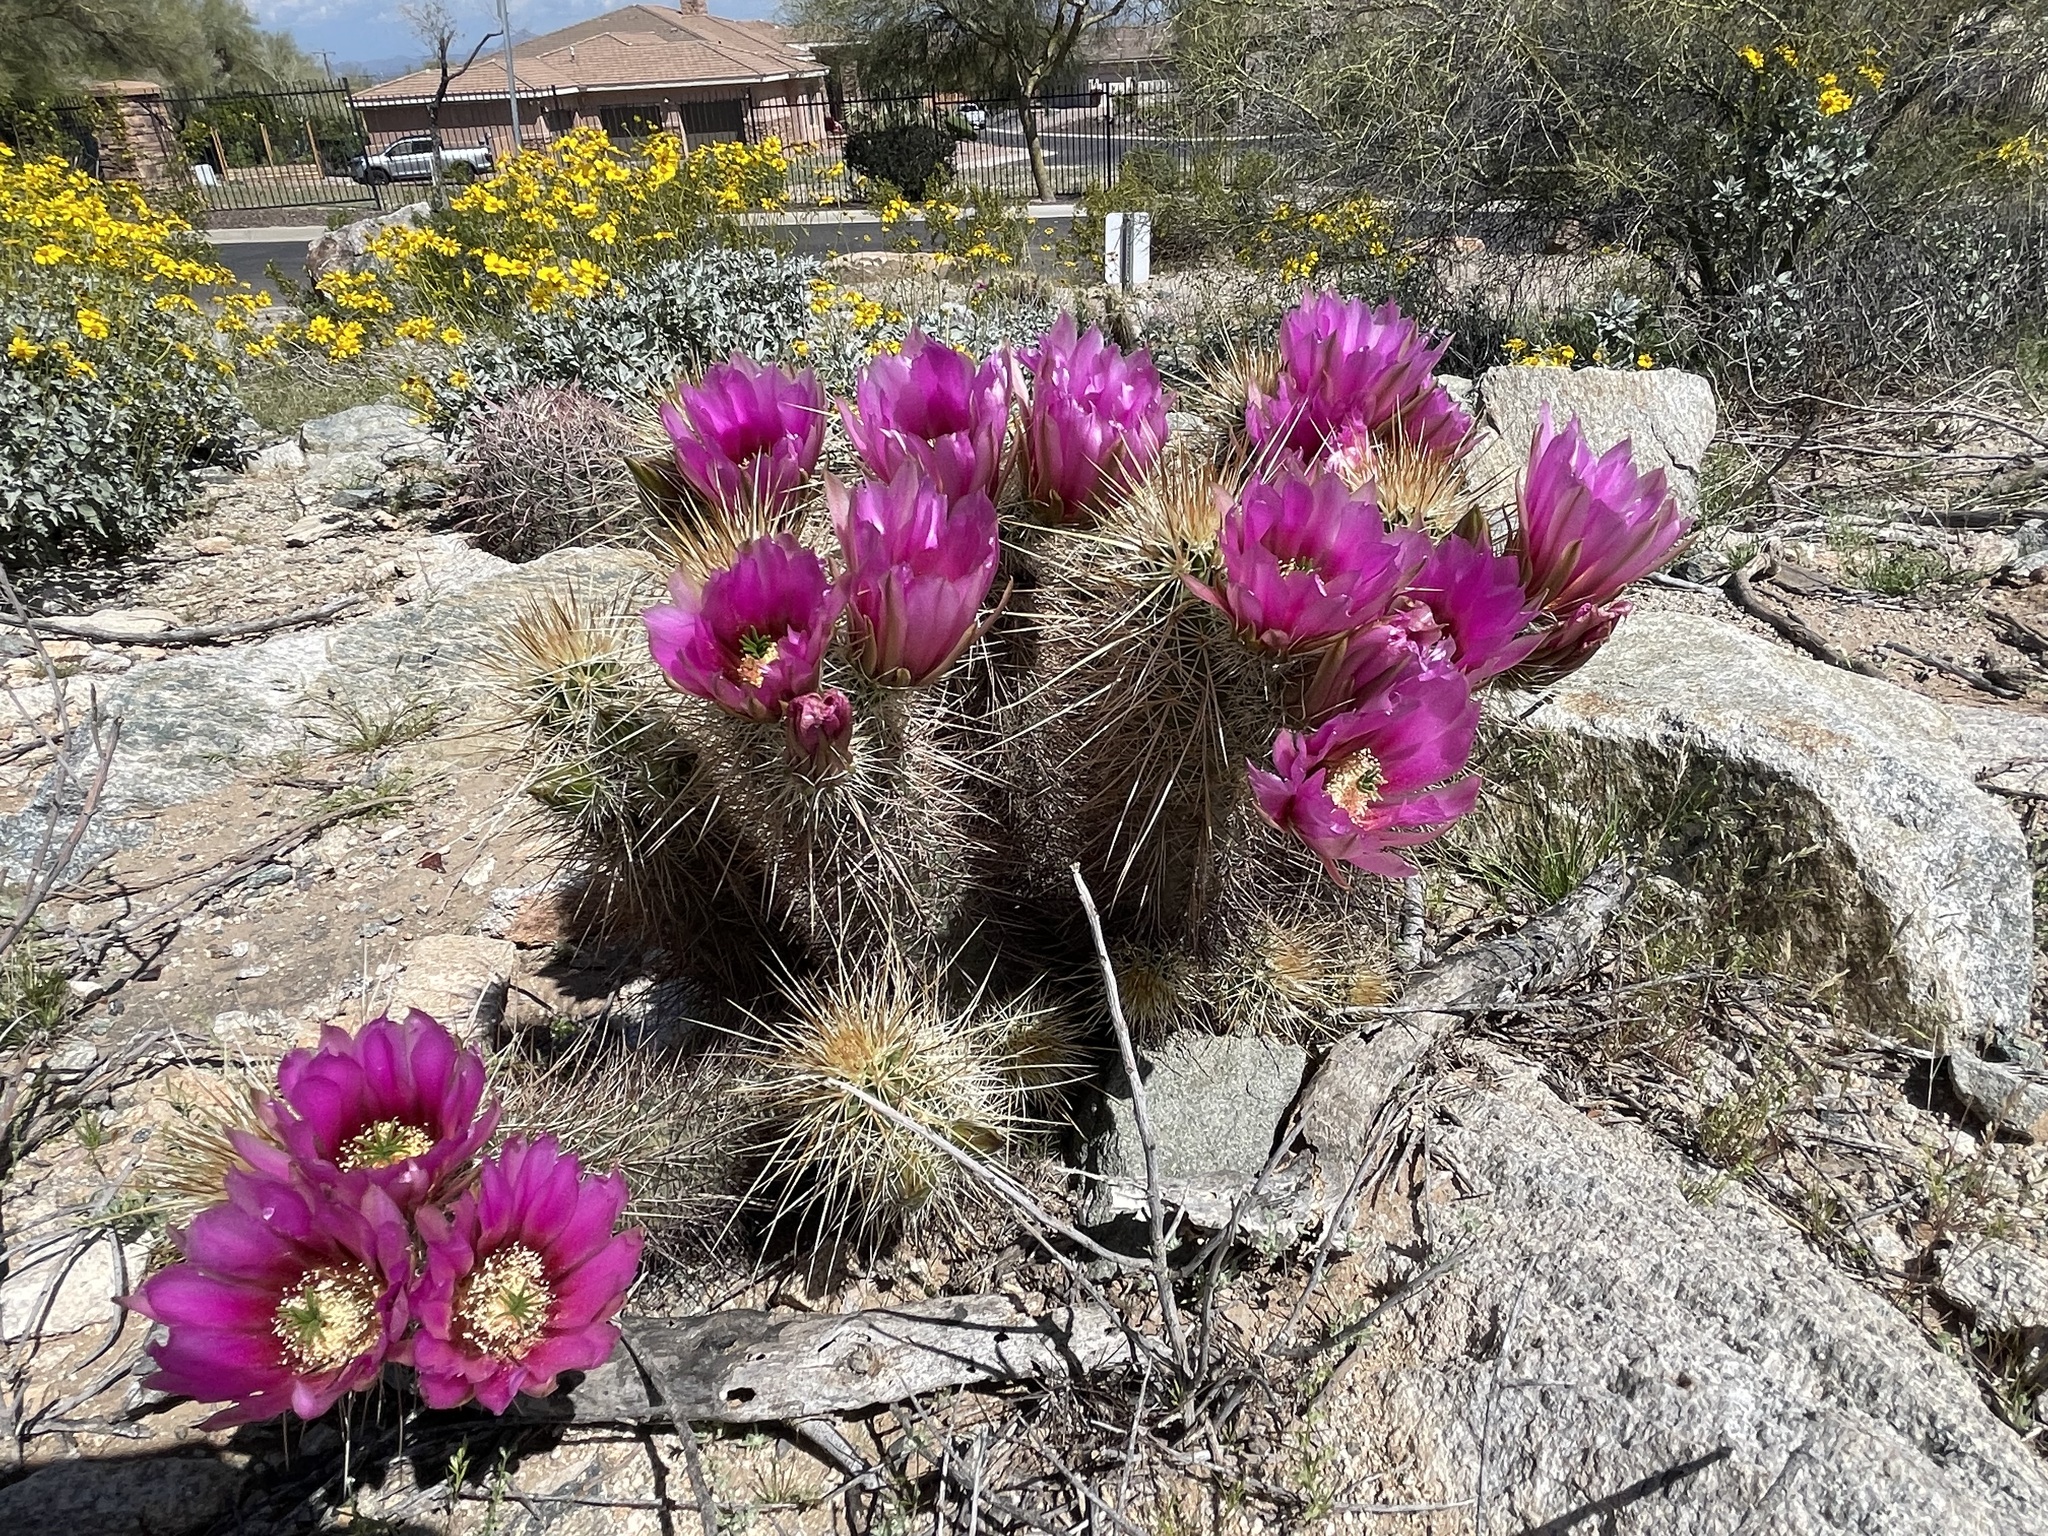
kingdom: Plantae
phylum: Tracheophyta
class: Magnoliopsida
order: Caryophyllales
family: Cactaceae
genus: Echinocereus
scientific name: Echinocereus engelmannii
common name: Engelmann's hedgehog cactus
